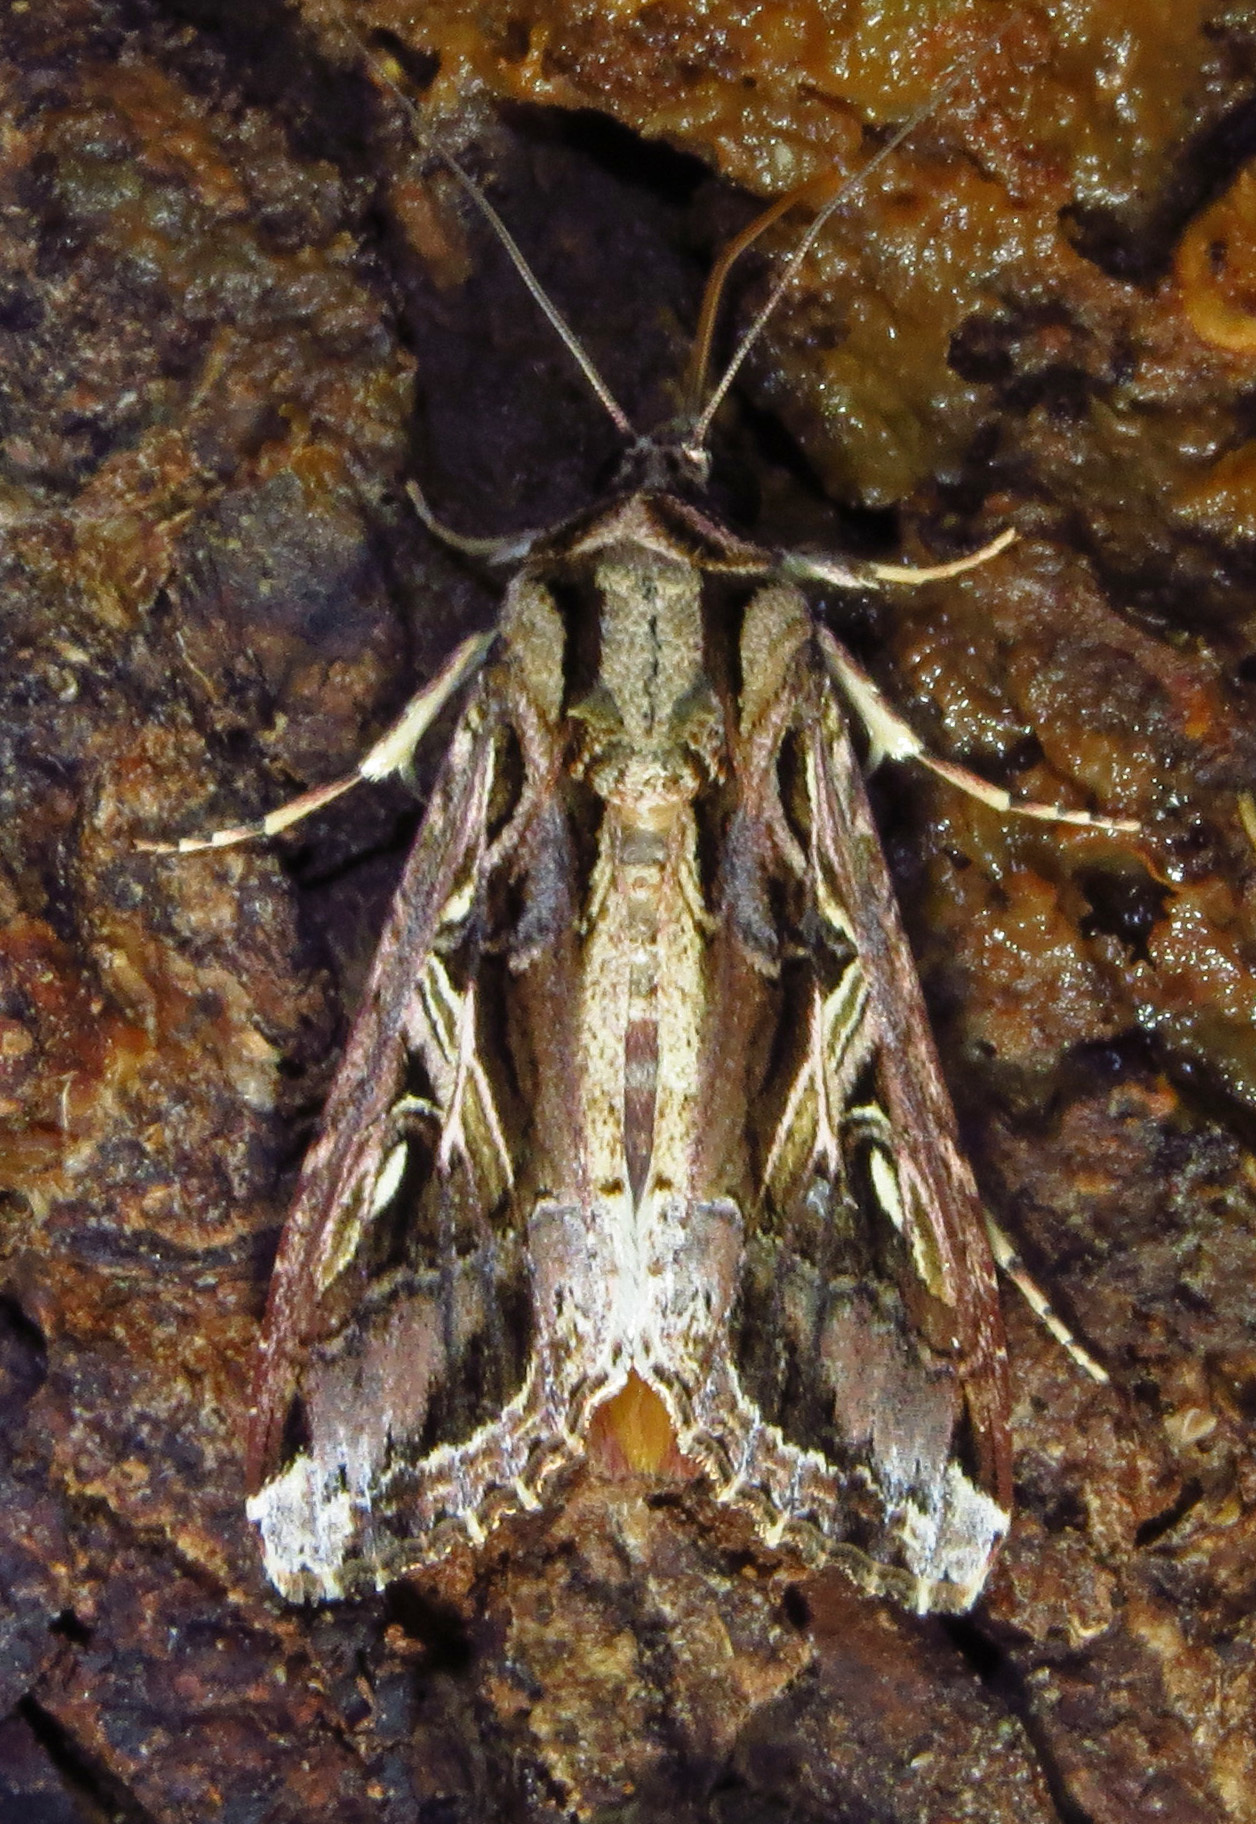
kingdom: Animalia
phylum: Arthropoda
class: Insecta
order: Lepidoptera
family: Noctuidae
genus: Spodoptera
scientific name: Spodoptera dolichos
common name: Sweetpotato armyworm
